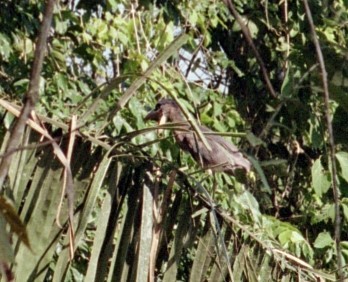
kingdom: Animalia
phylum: Chordata
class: Aves
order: Pelecaniformes
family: Ardeidae
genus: Cochlearius
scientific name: Cochlearius cochlearius
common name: Boat-billed heron
